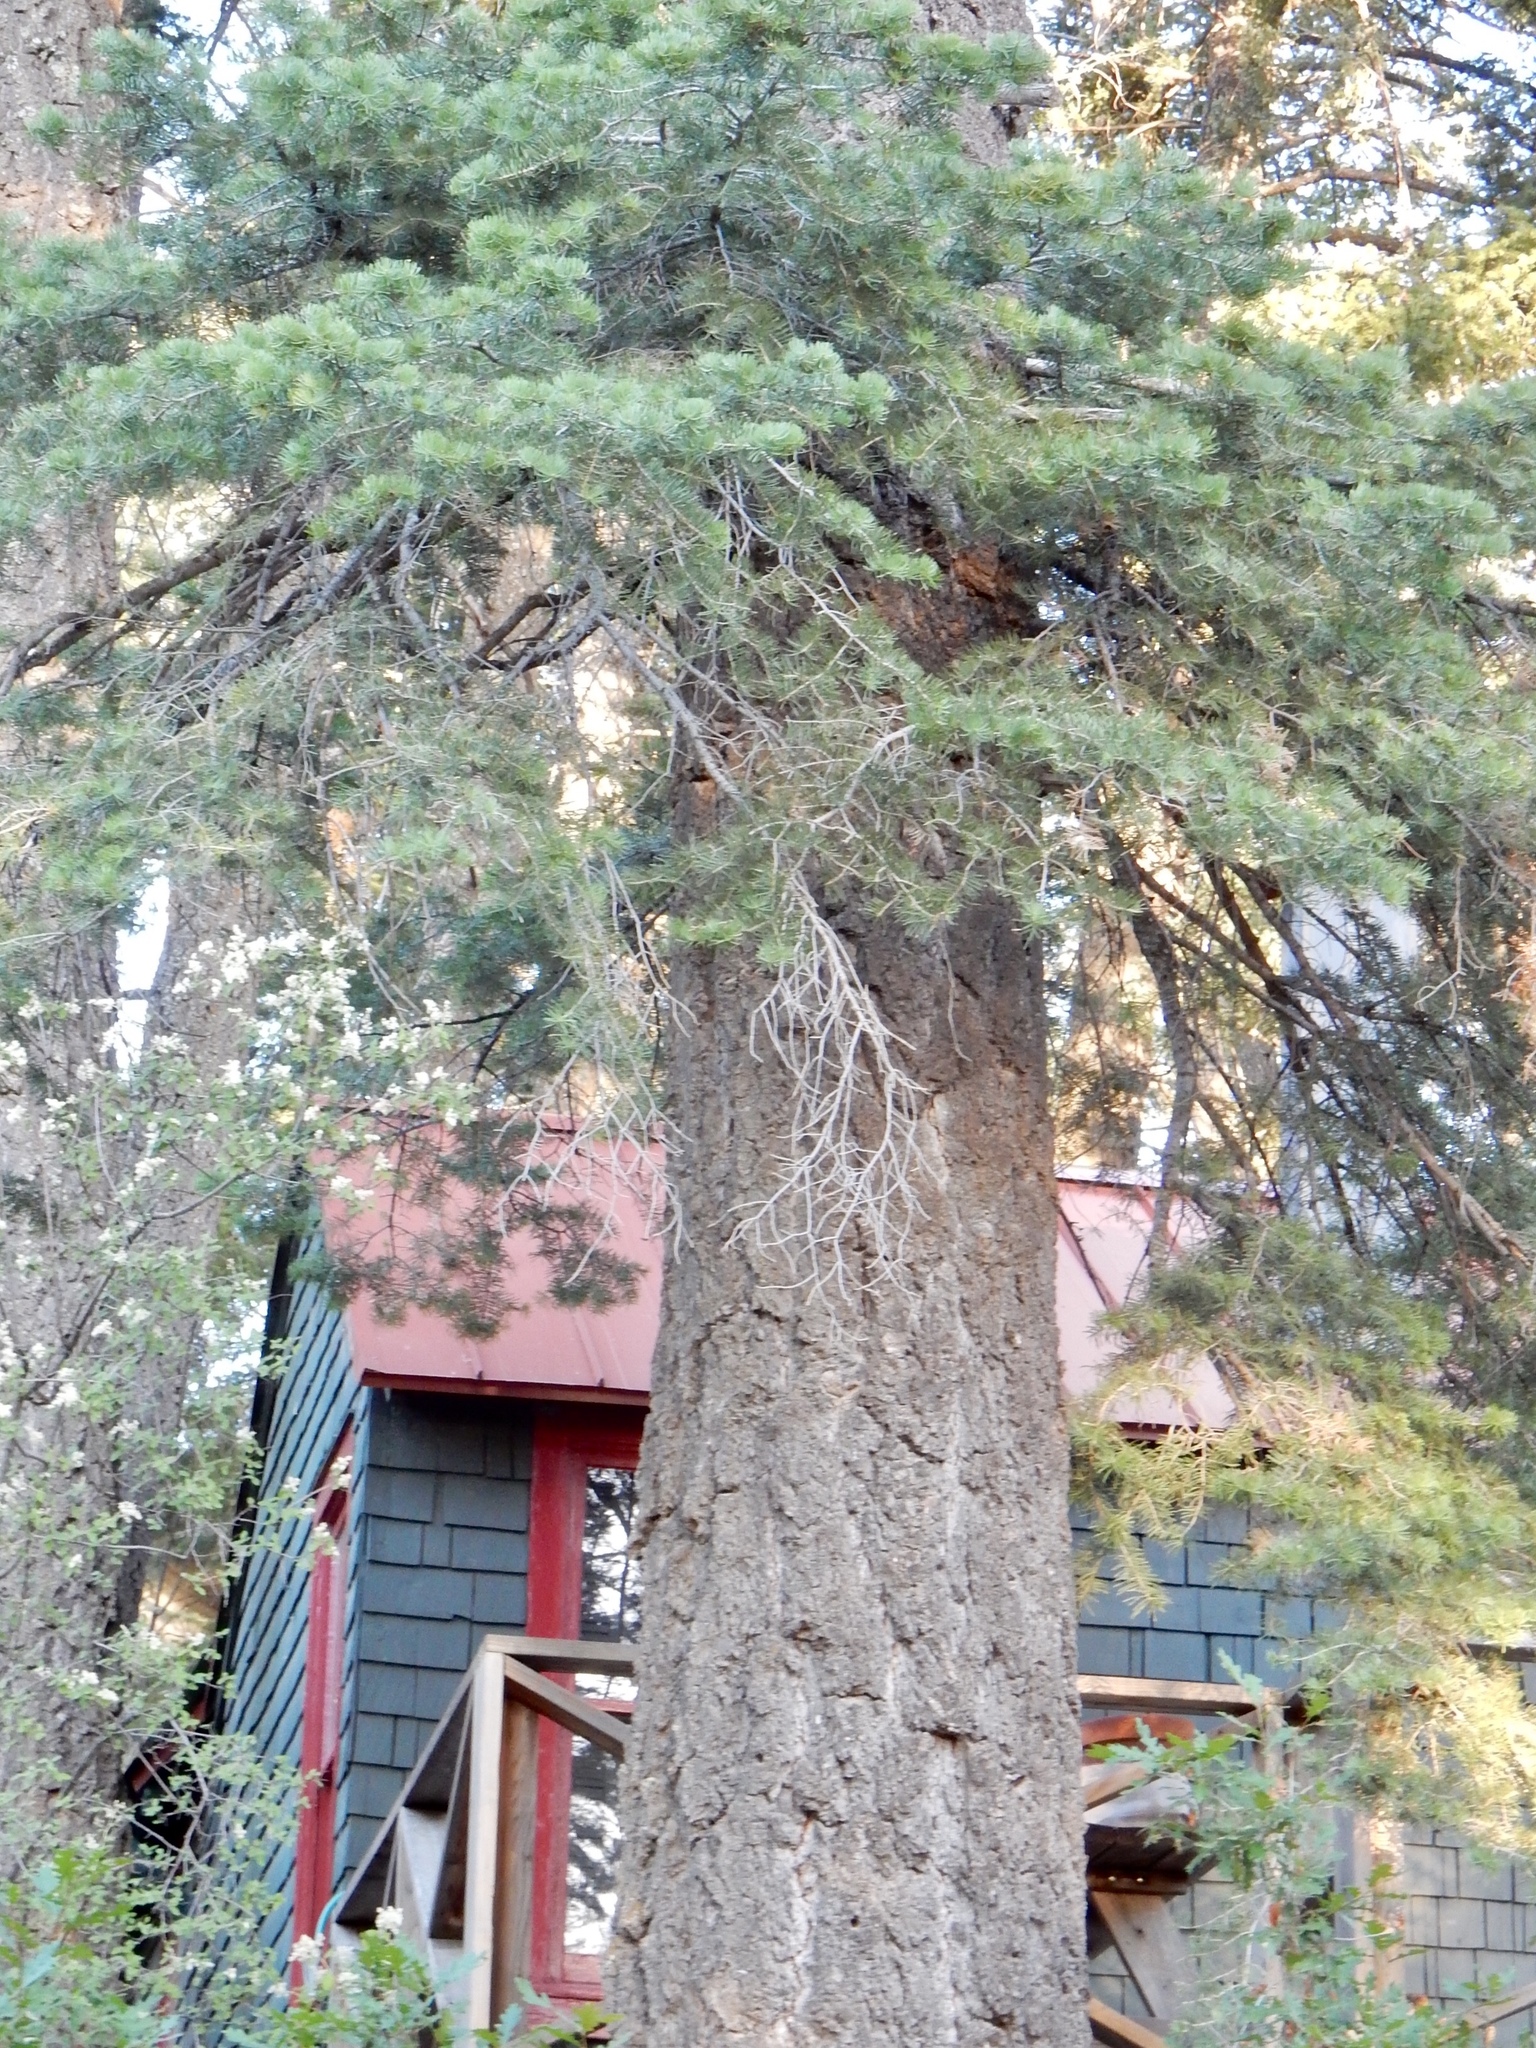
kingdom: Plantae
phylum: Tracheophyta
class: Pinopsida
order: Pinales
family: Pinaceae
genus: Pseudotsuga
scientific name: Pseudotsuga menziesii
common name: Douglas fir
